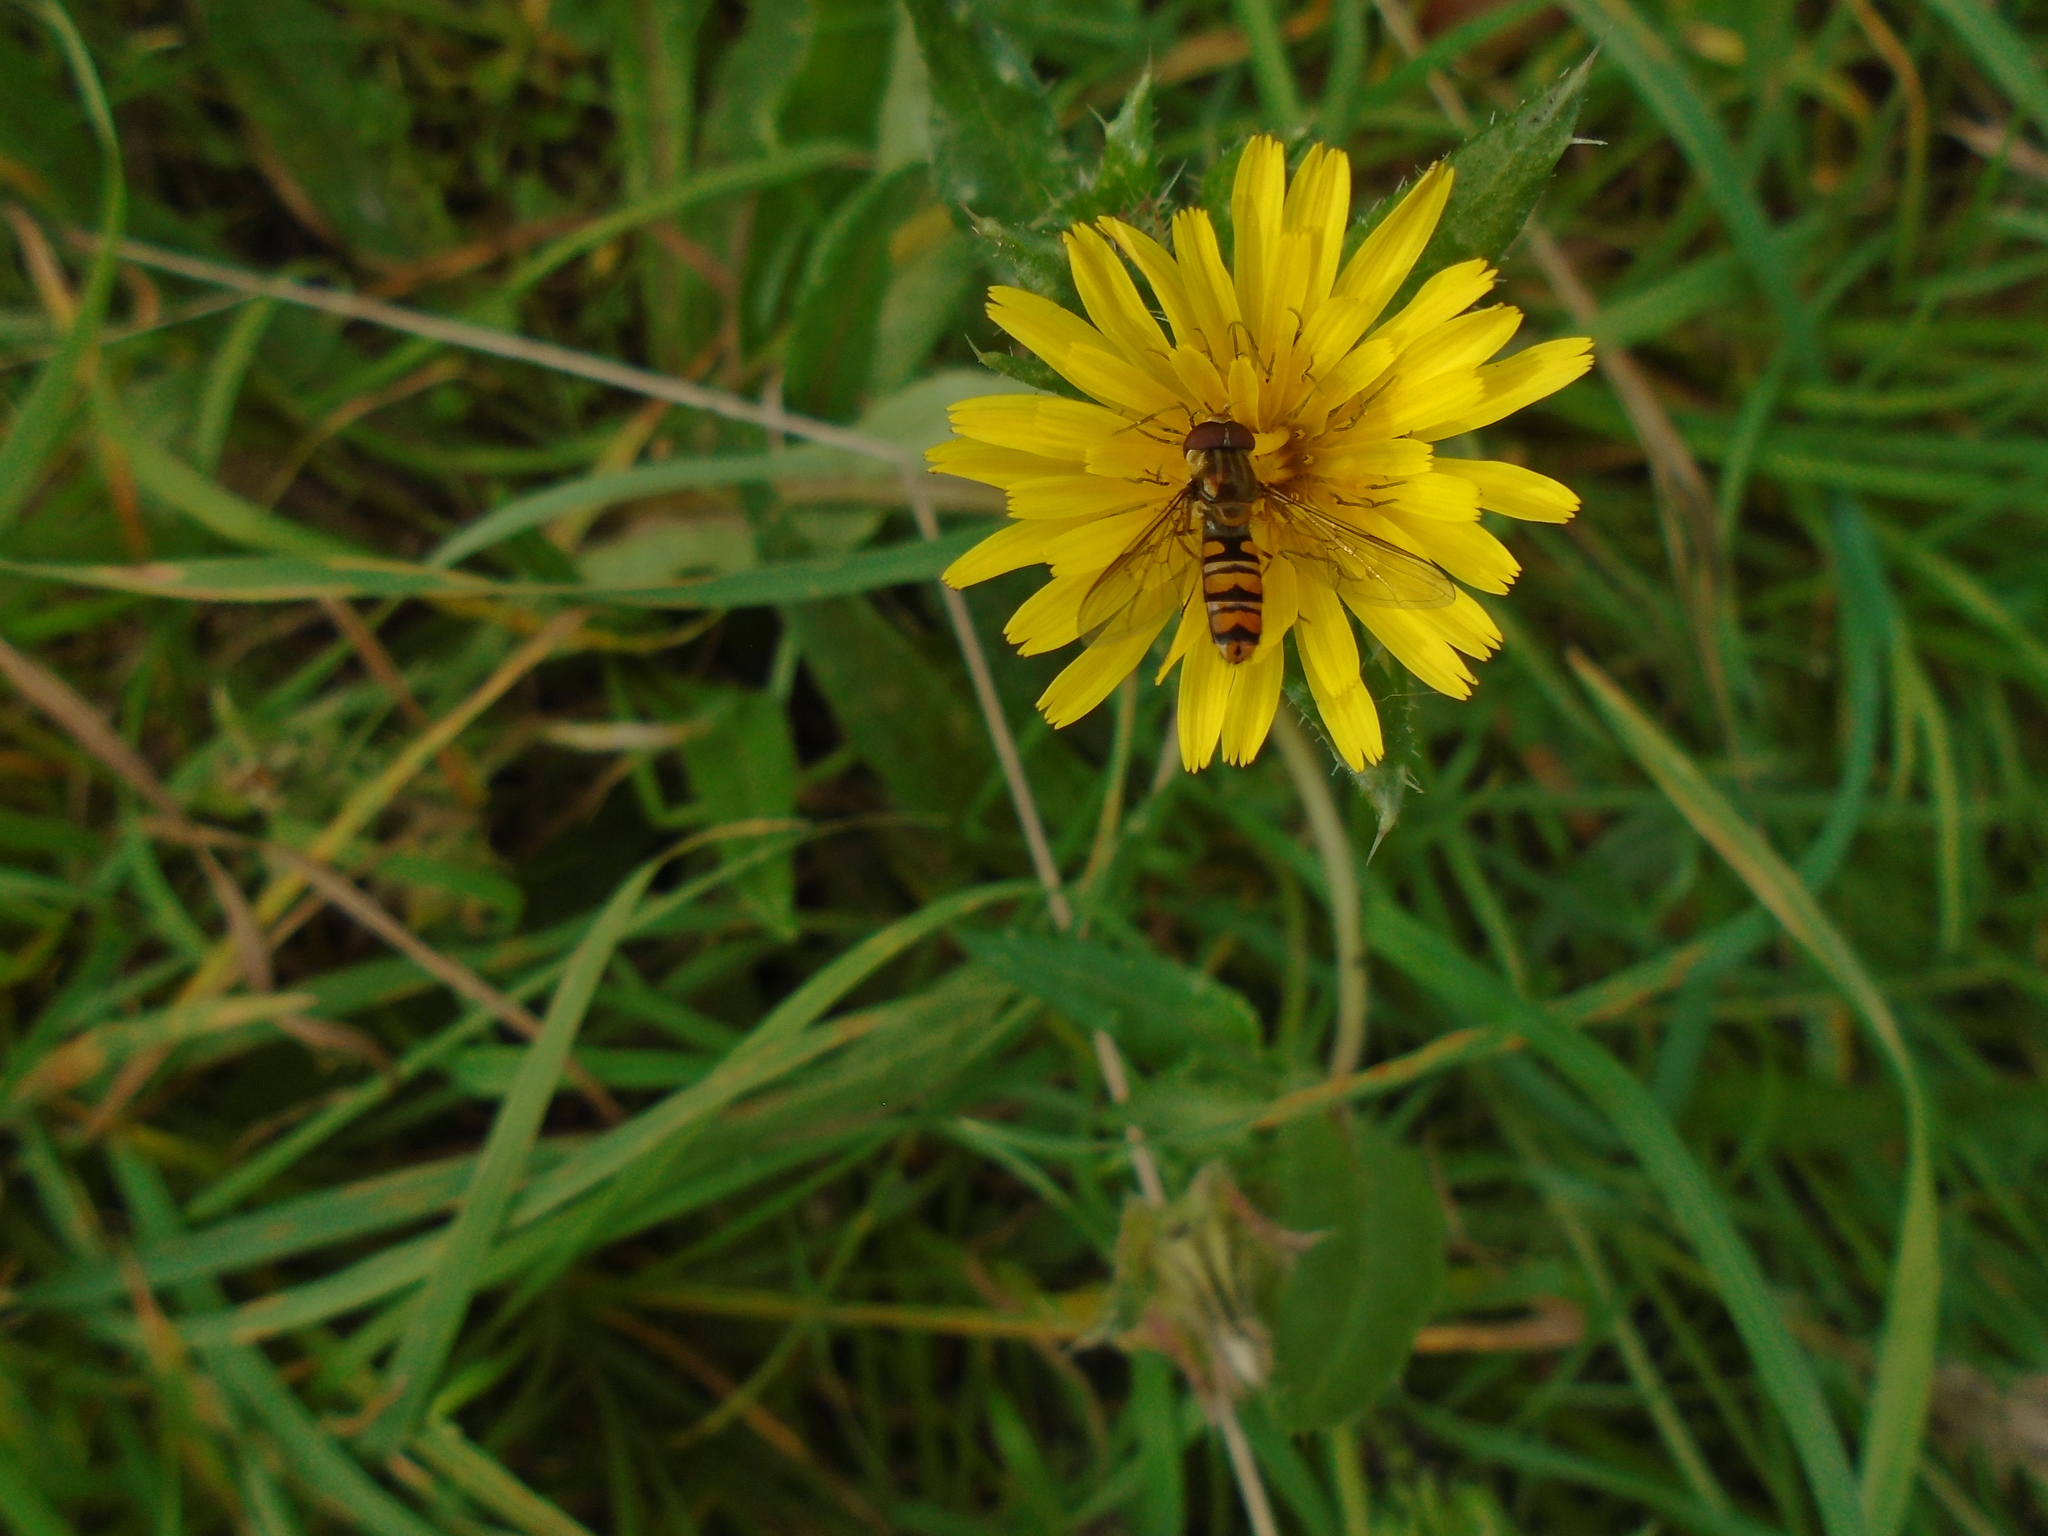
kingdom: Animalia
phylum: Arthropoda
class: Insecta
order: Diptera
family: Syrphidae
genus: Episyrphus
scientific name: Episyrphus balteatus
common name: Marmalade hoverfly
